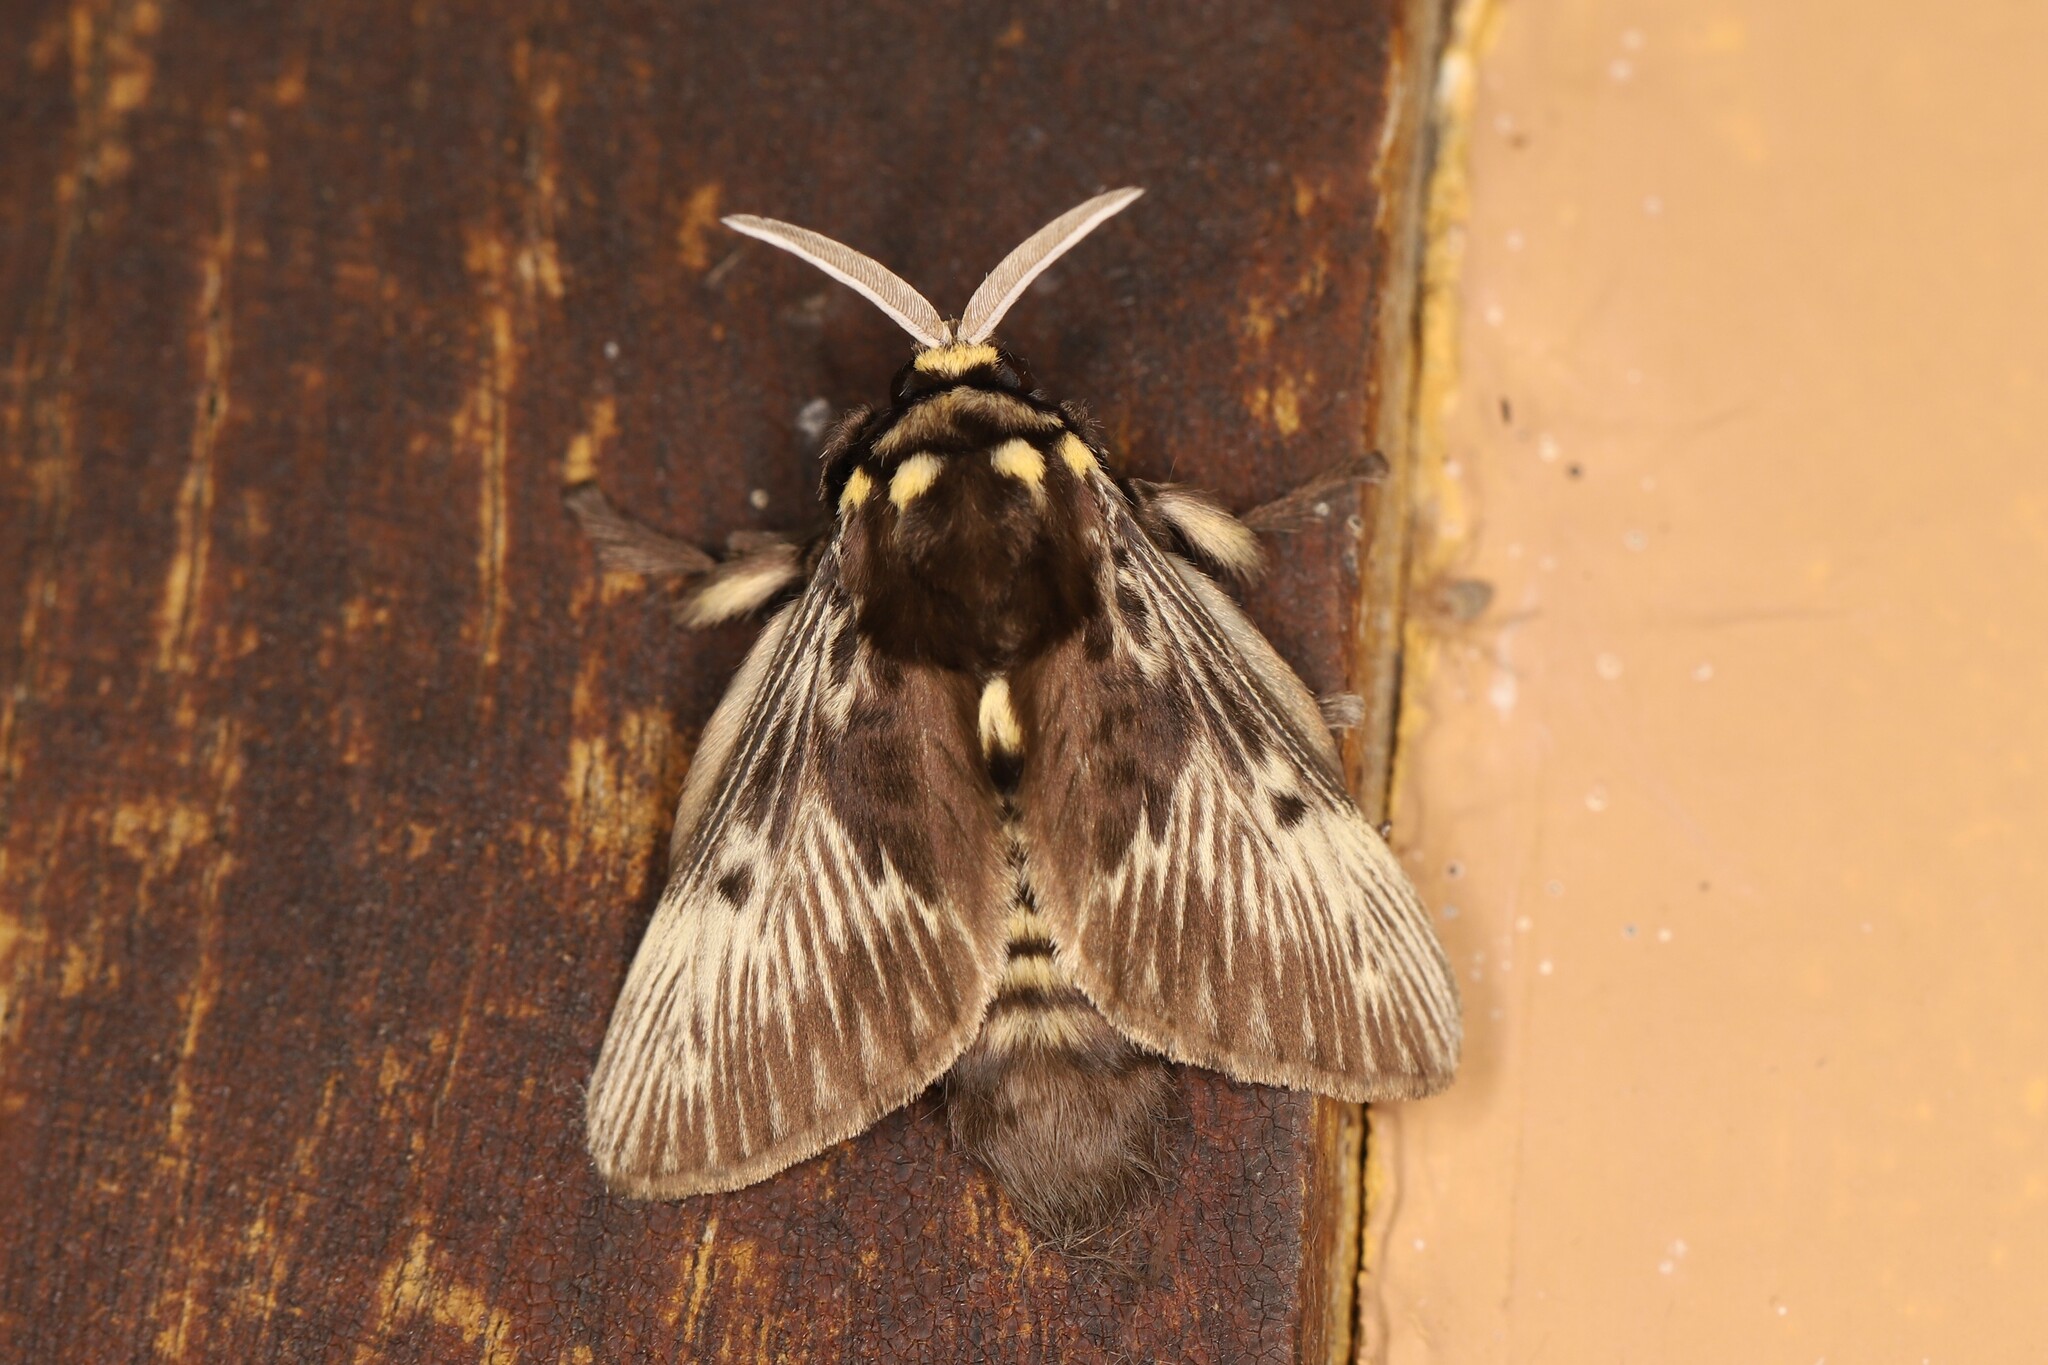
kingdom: Animalia
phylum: Arthropoda
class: Insecta
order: Lepidoptera
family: Megalopygidae
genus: Megalopyge
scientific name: Megalopyge albicollis
